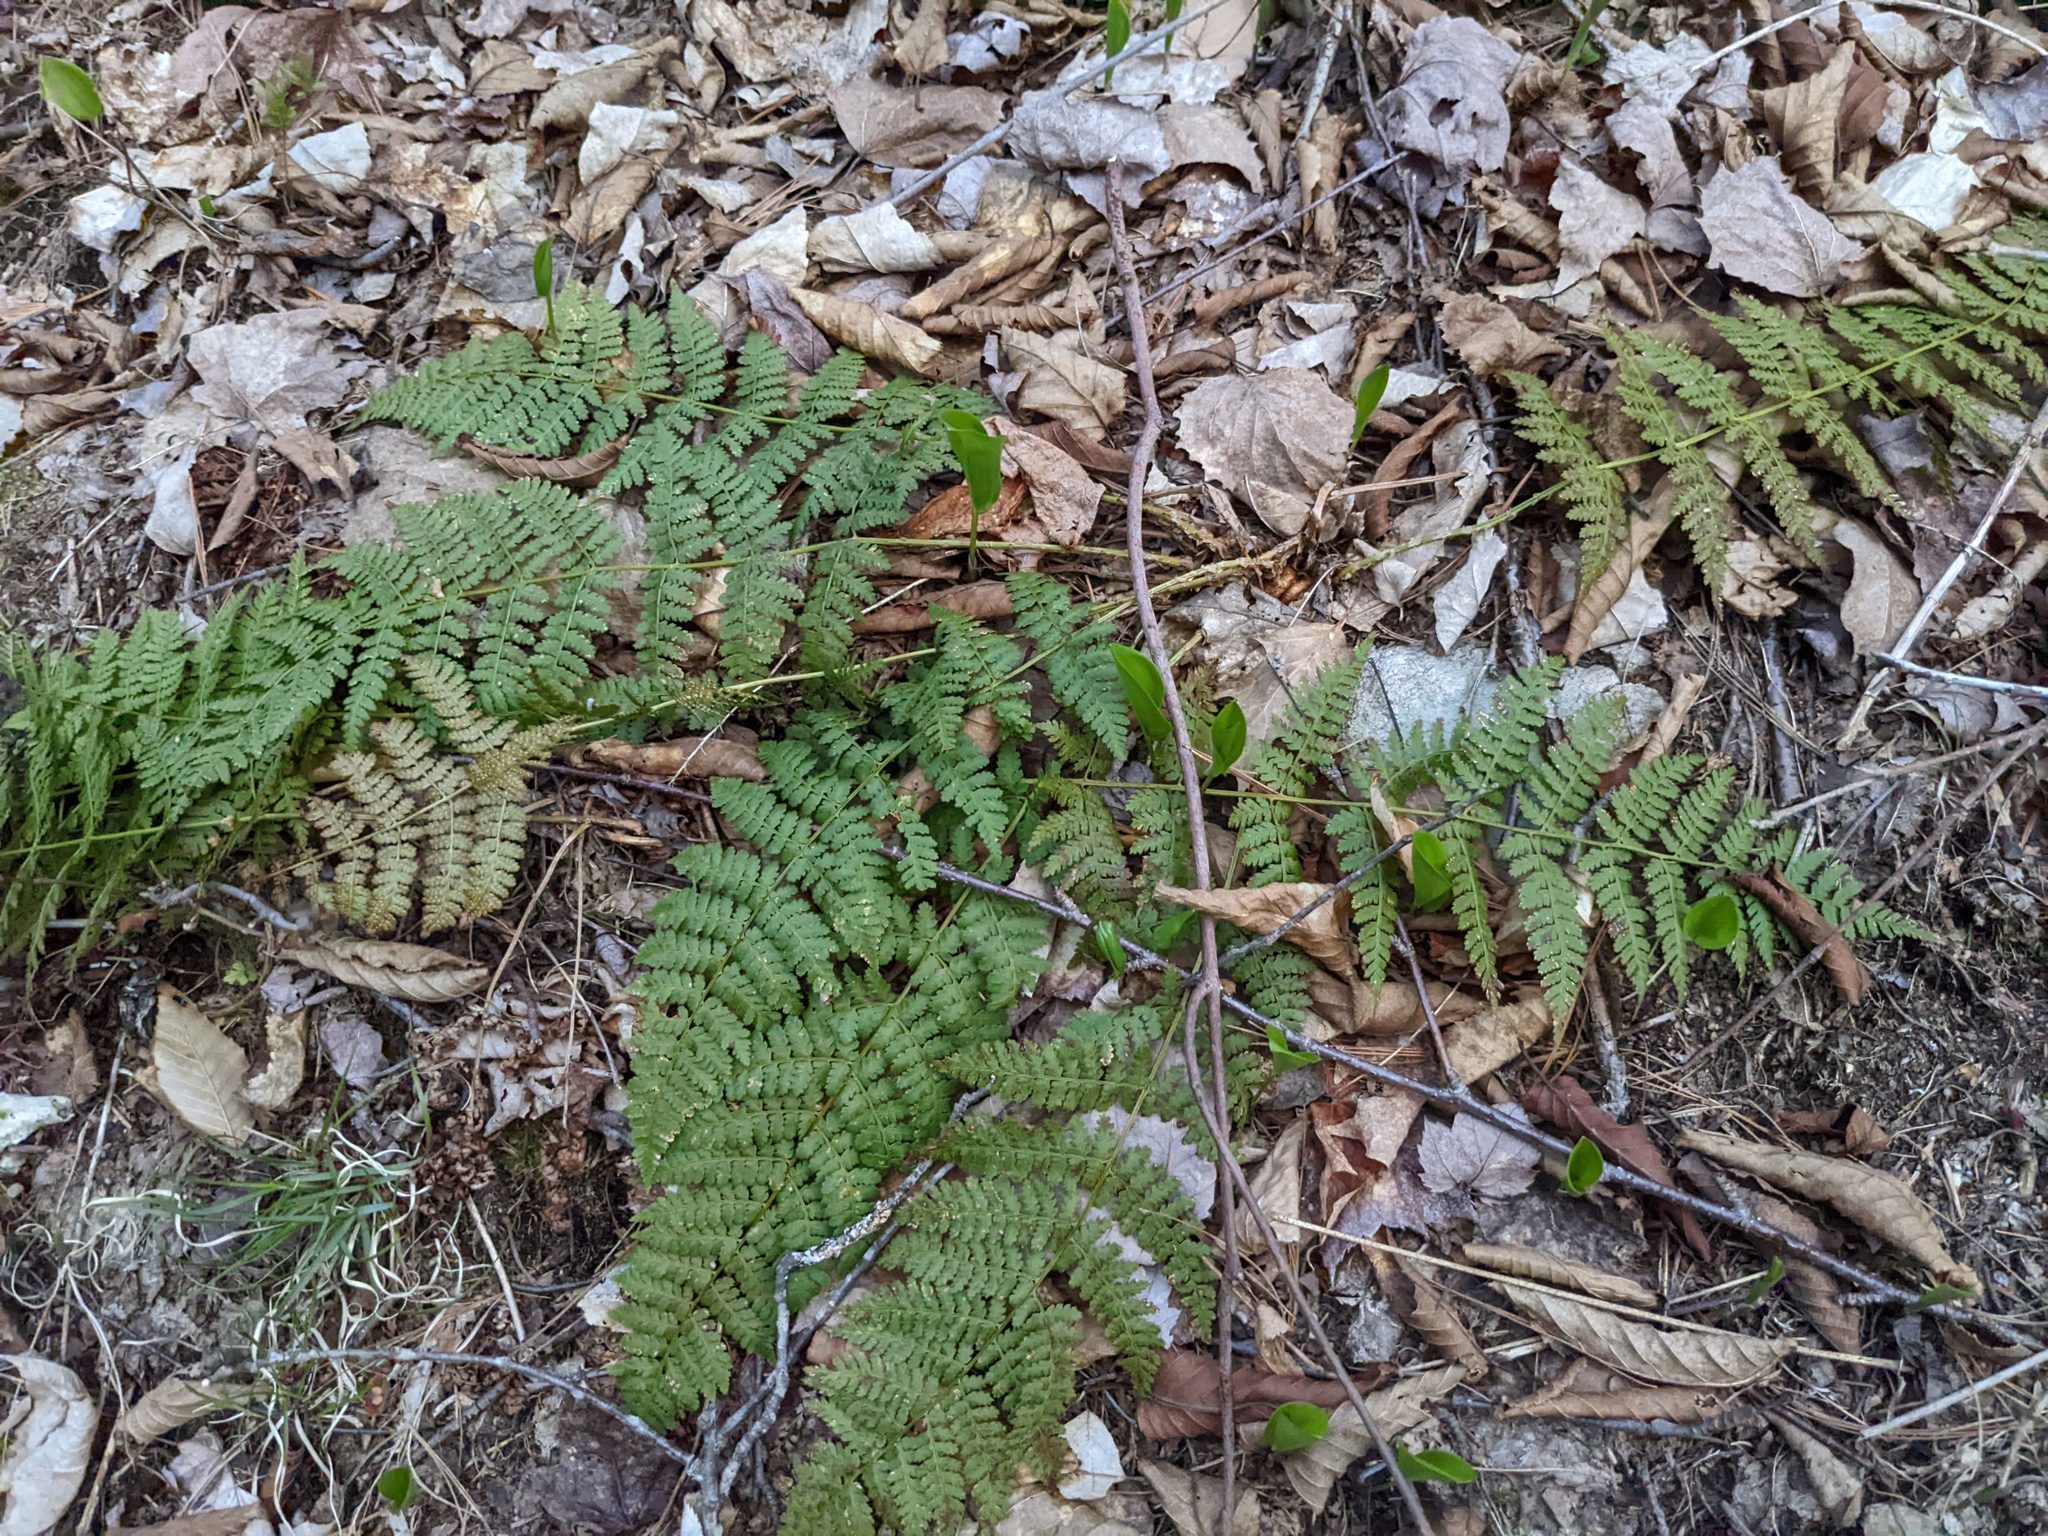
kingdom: Plantae
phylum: Tracheophyta
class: Polypodiopsida
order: Polypodiales
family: Dryopteridaceae
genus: Dryopteris
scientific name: Dryopteris intermedia
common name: Evergreen wood fern
